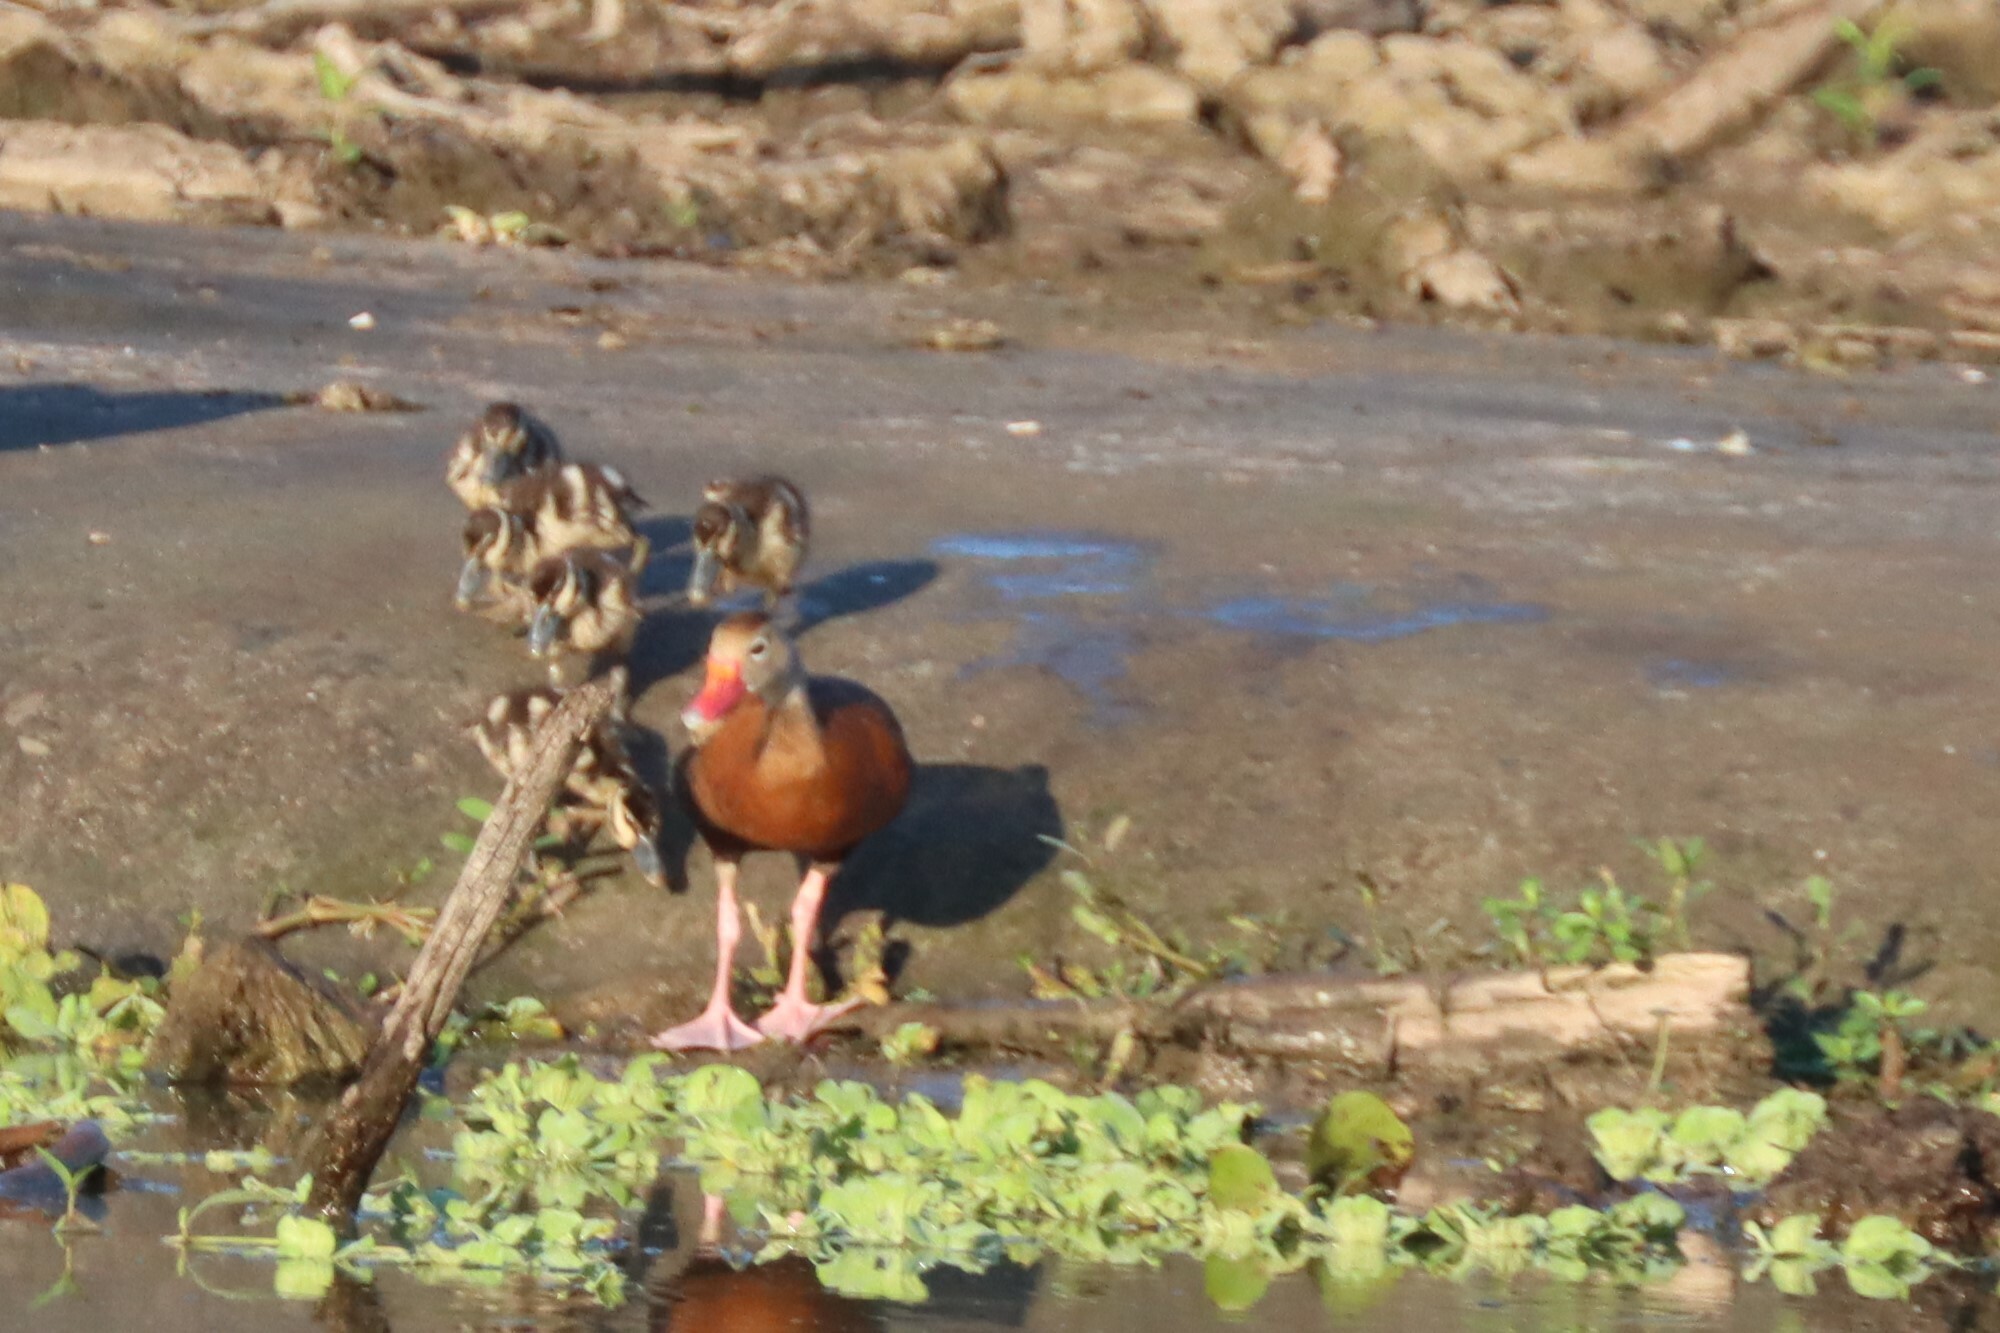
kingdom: Animalia
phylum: Chordata
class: Aves
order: Anseriformes
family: Anatidae
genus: Dendrocygna
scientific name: Dendrocygna autumnalis
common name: Black-bellied whistling duck
